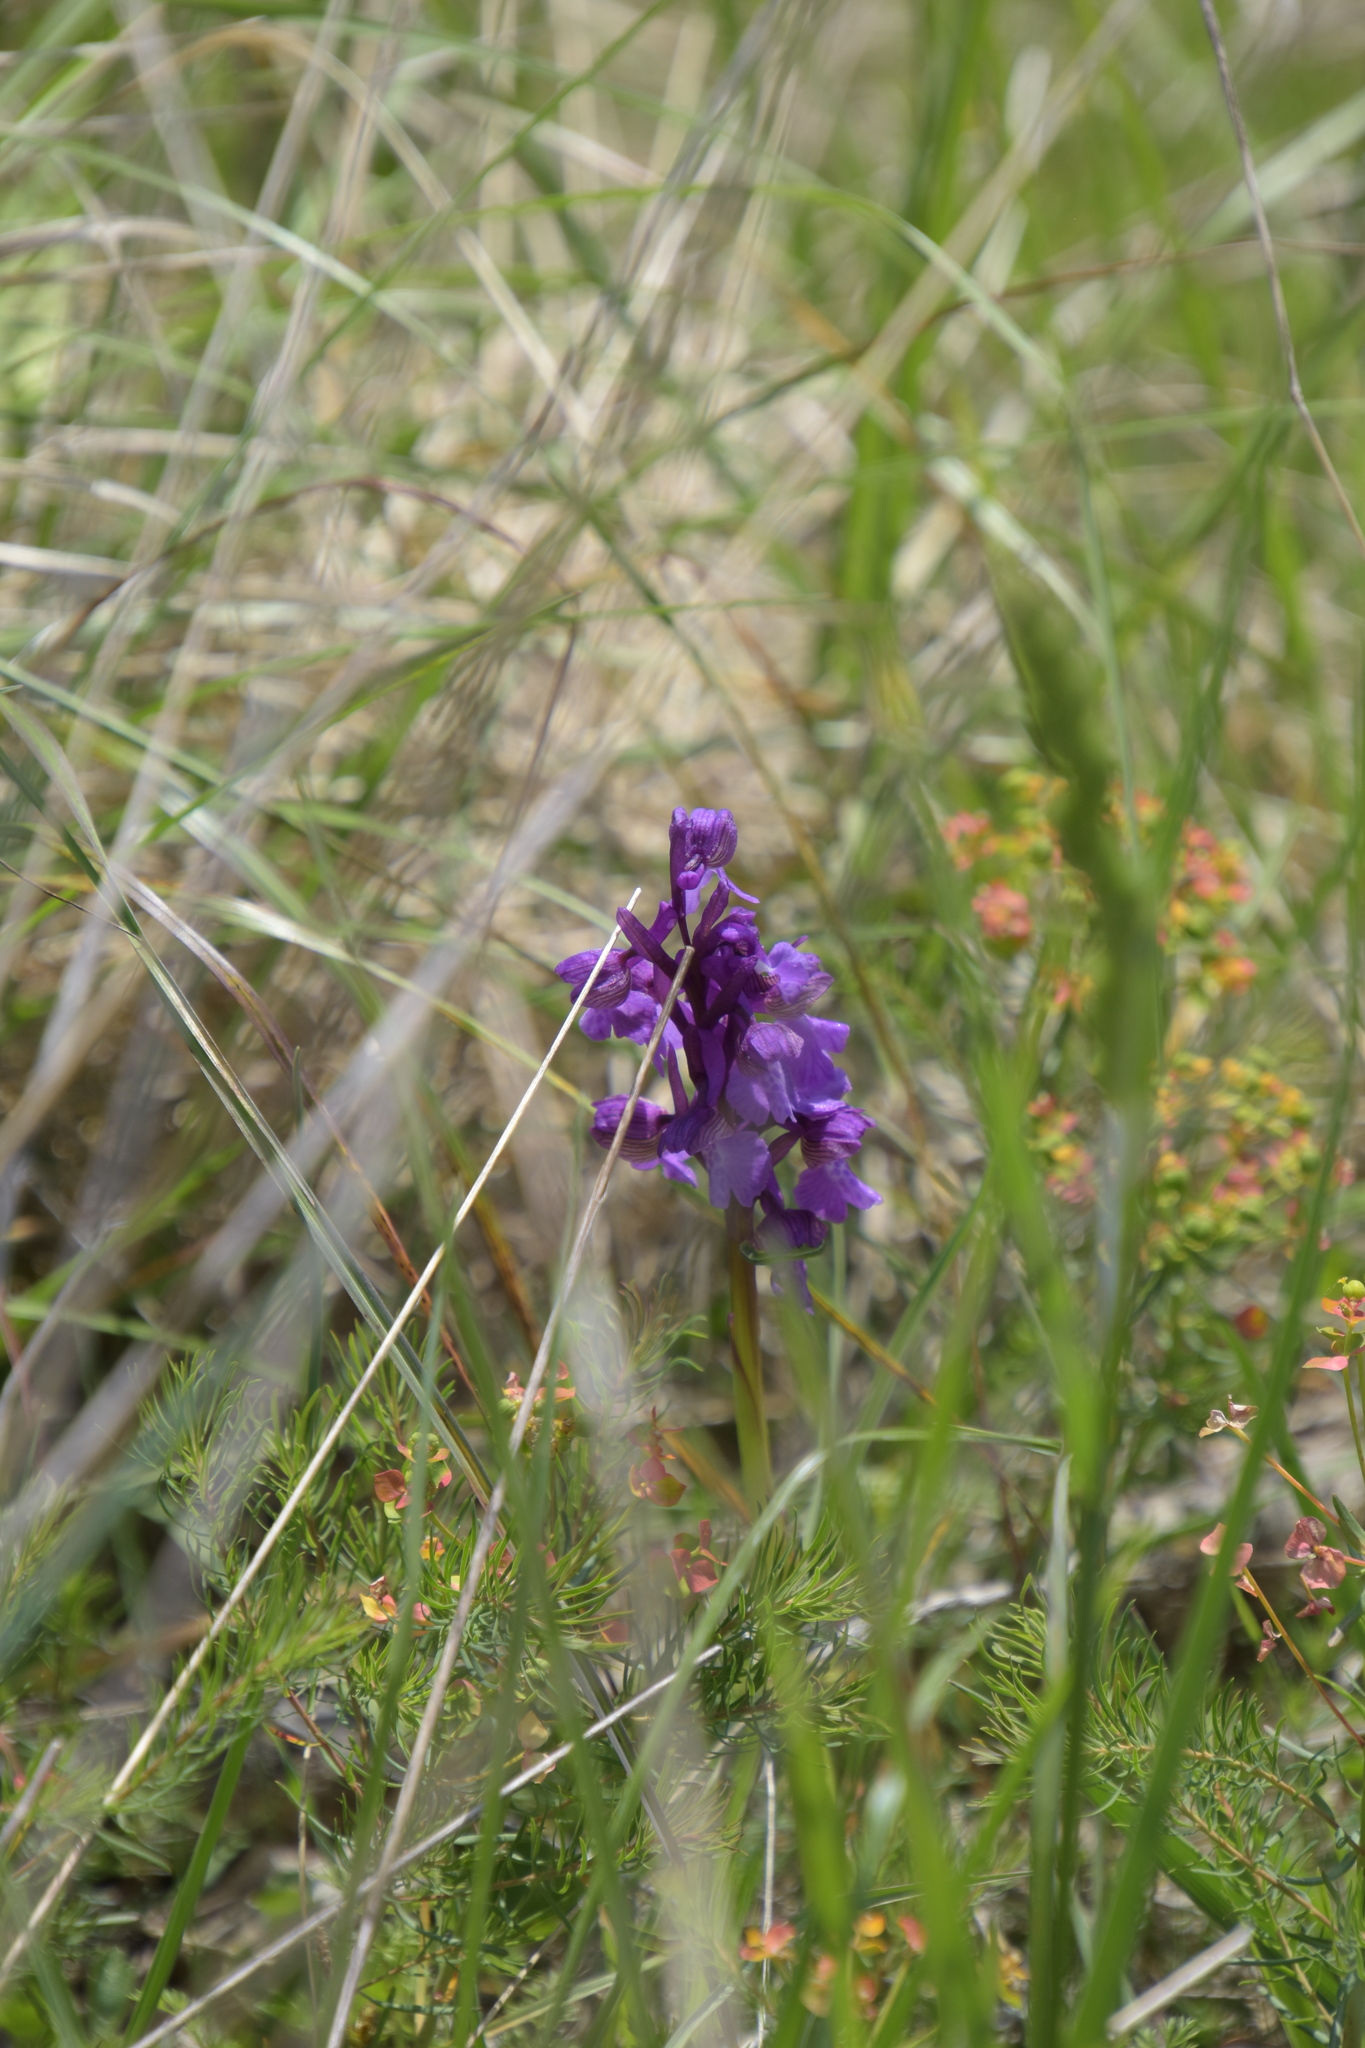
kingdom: Plantae
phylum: Tracheophyta
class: Liliopsida
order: Asparagales
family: Orchidaceae
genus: Anacamptis
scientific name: Anacamptis morio
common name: Green-winged orchid
